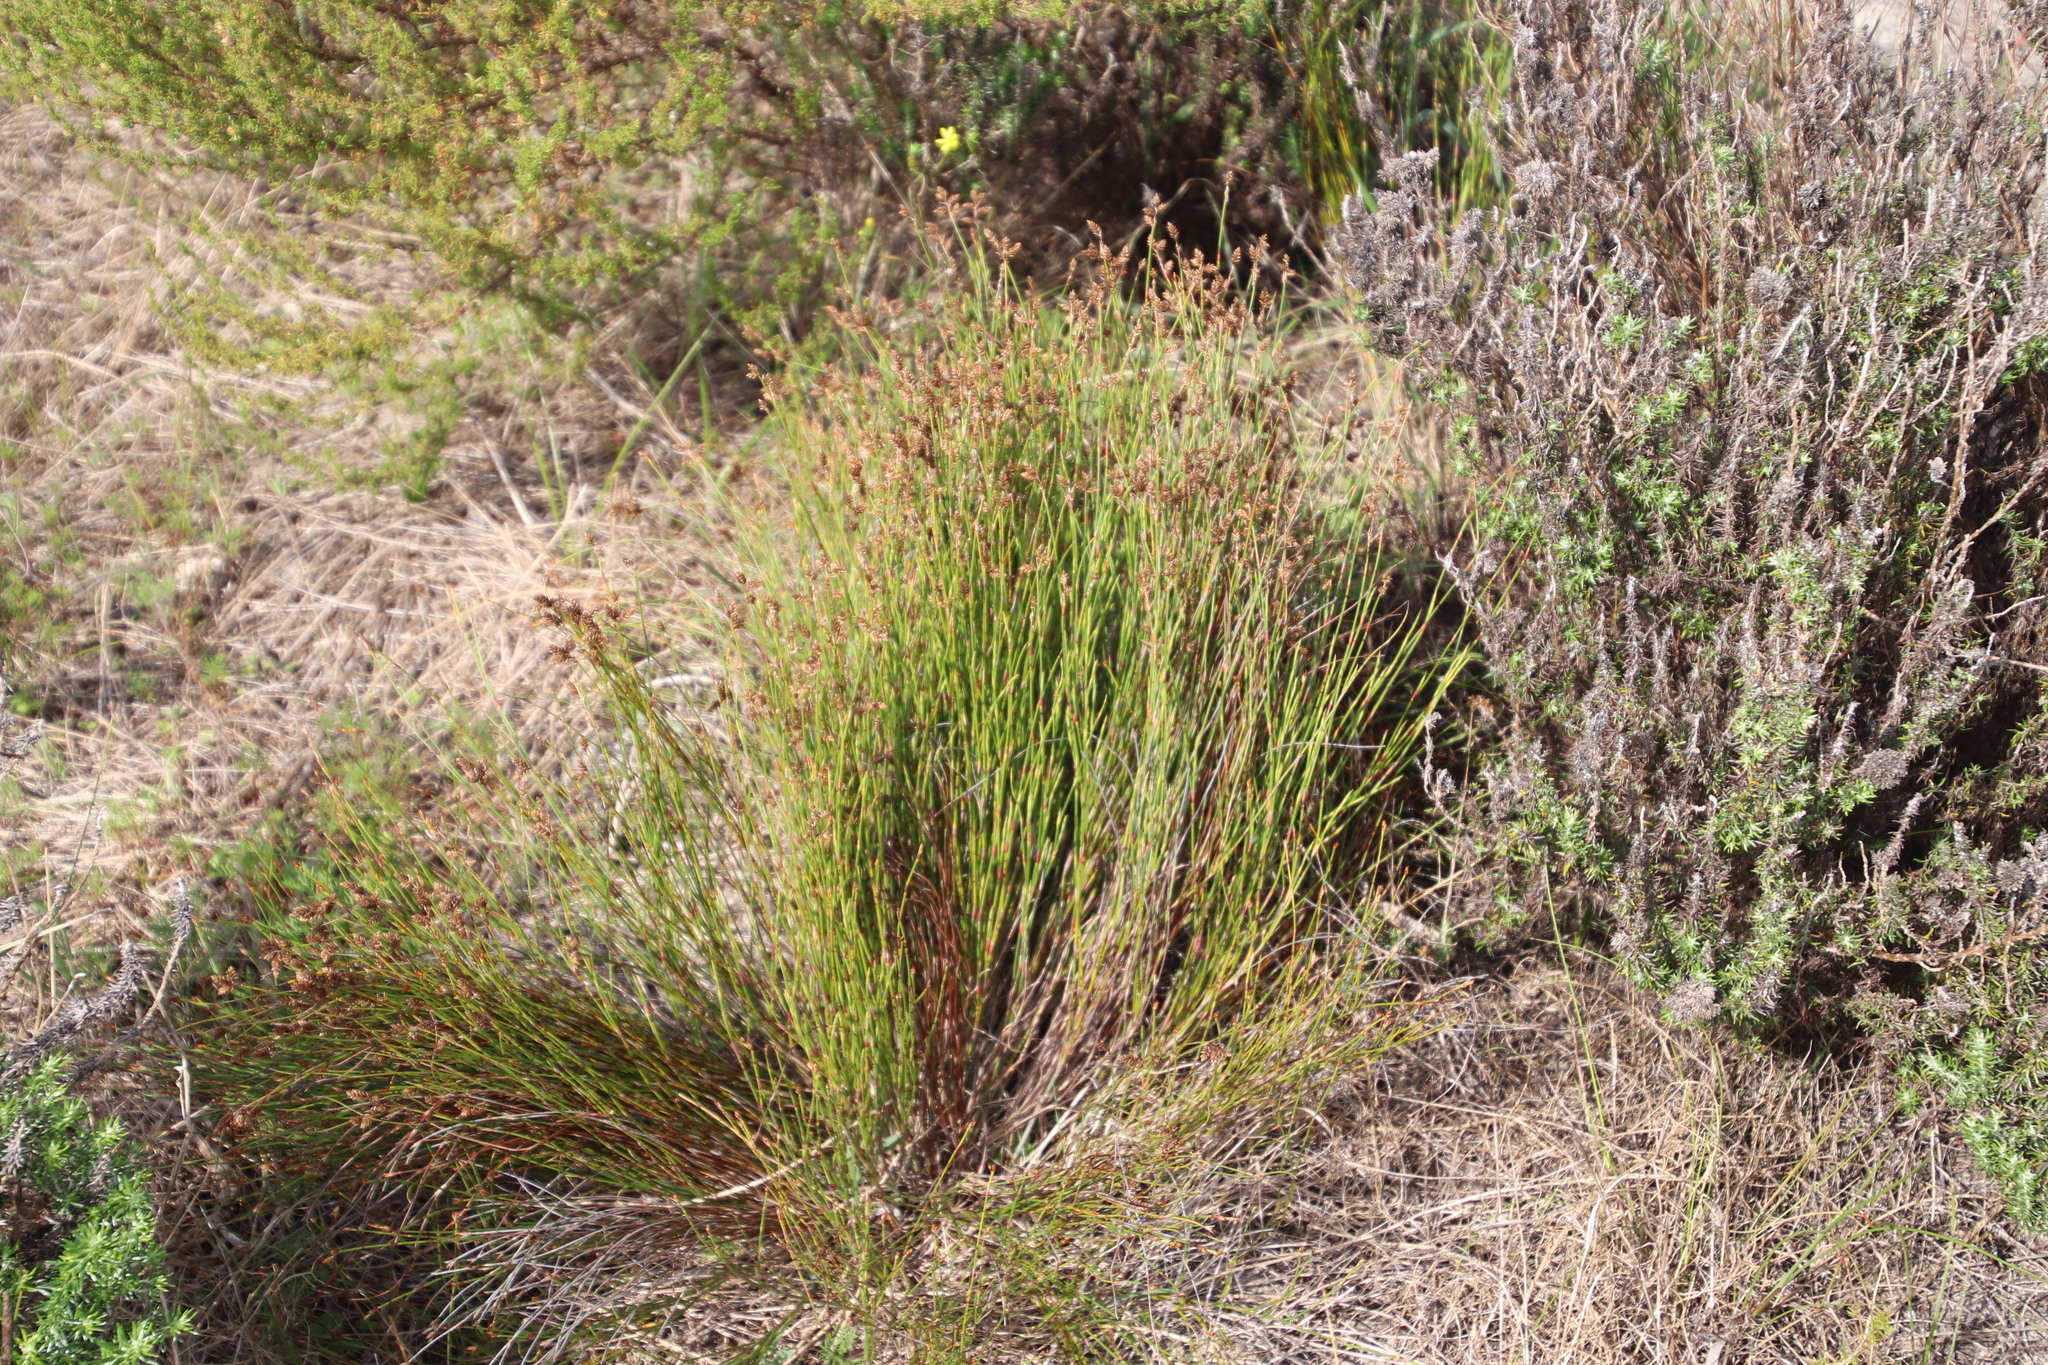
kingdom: Plantae
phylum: Tracheophyta
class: Liliopsida
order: Poales
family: Restionaceae
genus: Mastersiella
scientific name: Mastersiella digitata
